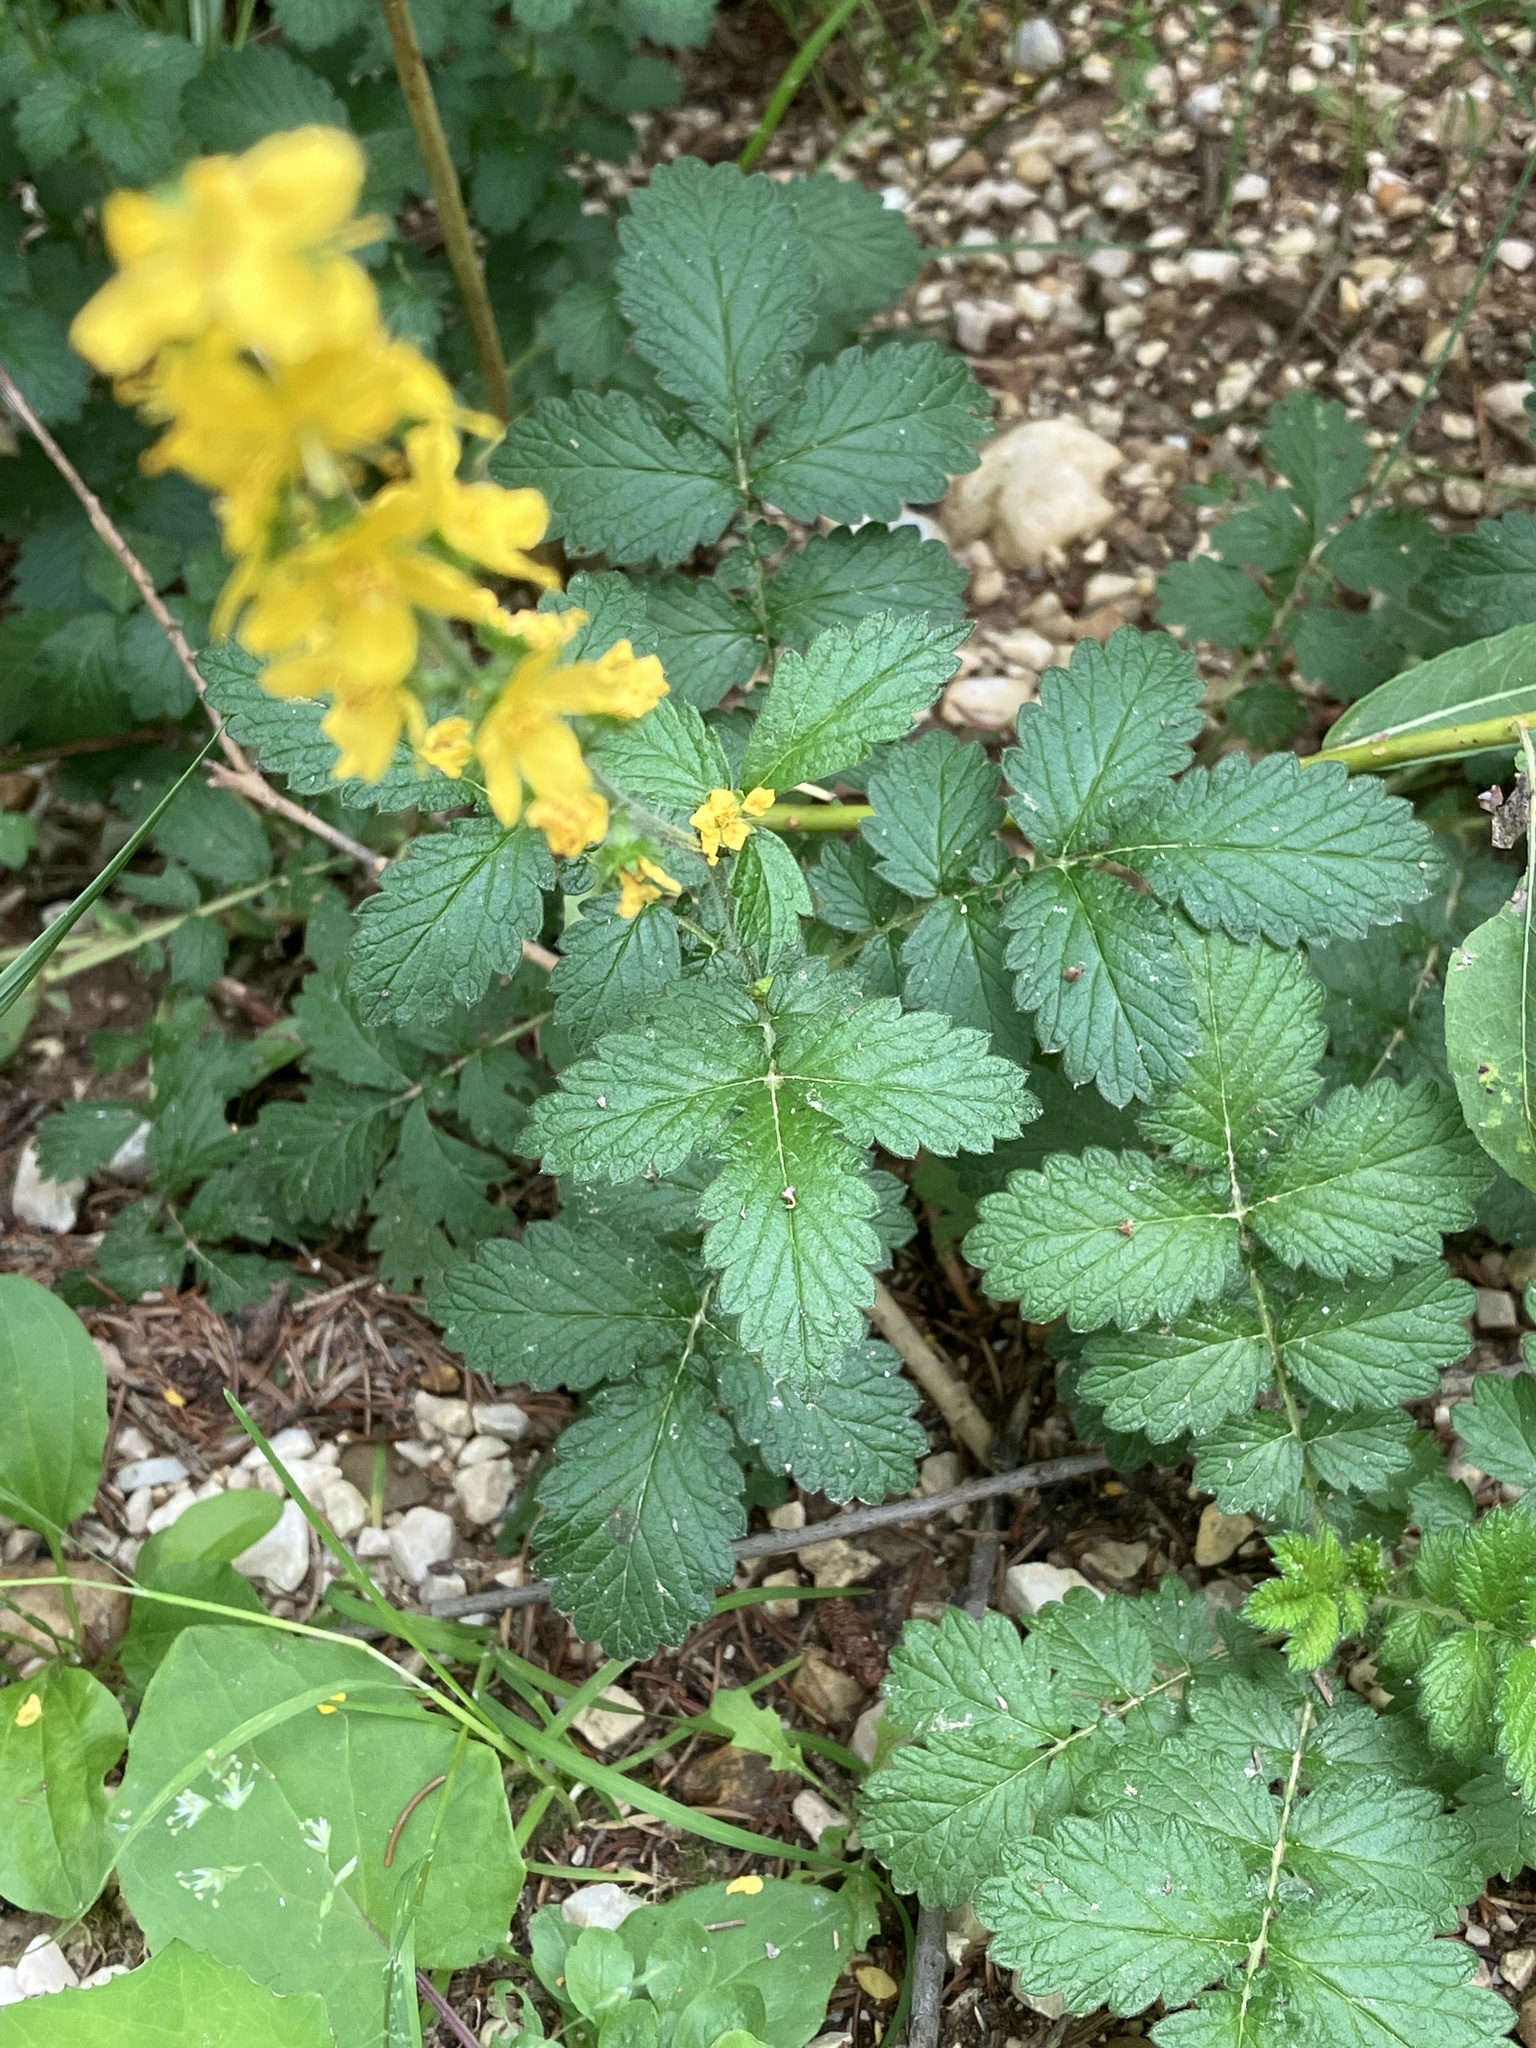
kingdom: Plantae
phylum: Tracheophyta
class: Magnoliopsida
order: Rosales
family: Rosaceae
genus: Agrimonia
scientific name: Agrimonia eupatoria
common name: Agrimony
